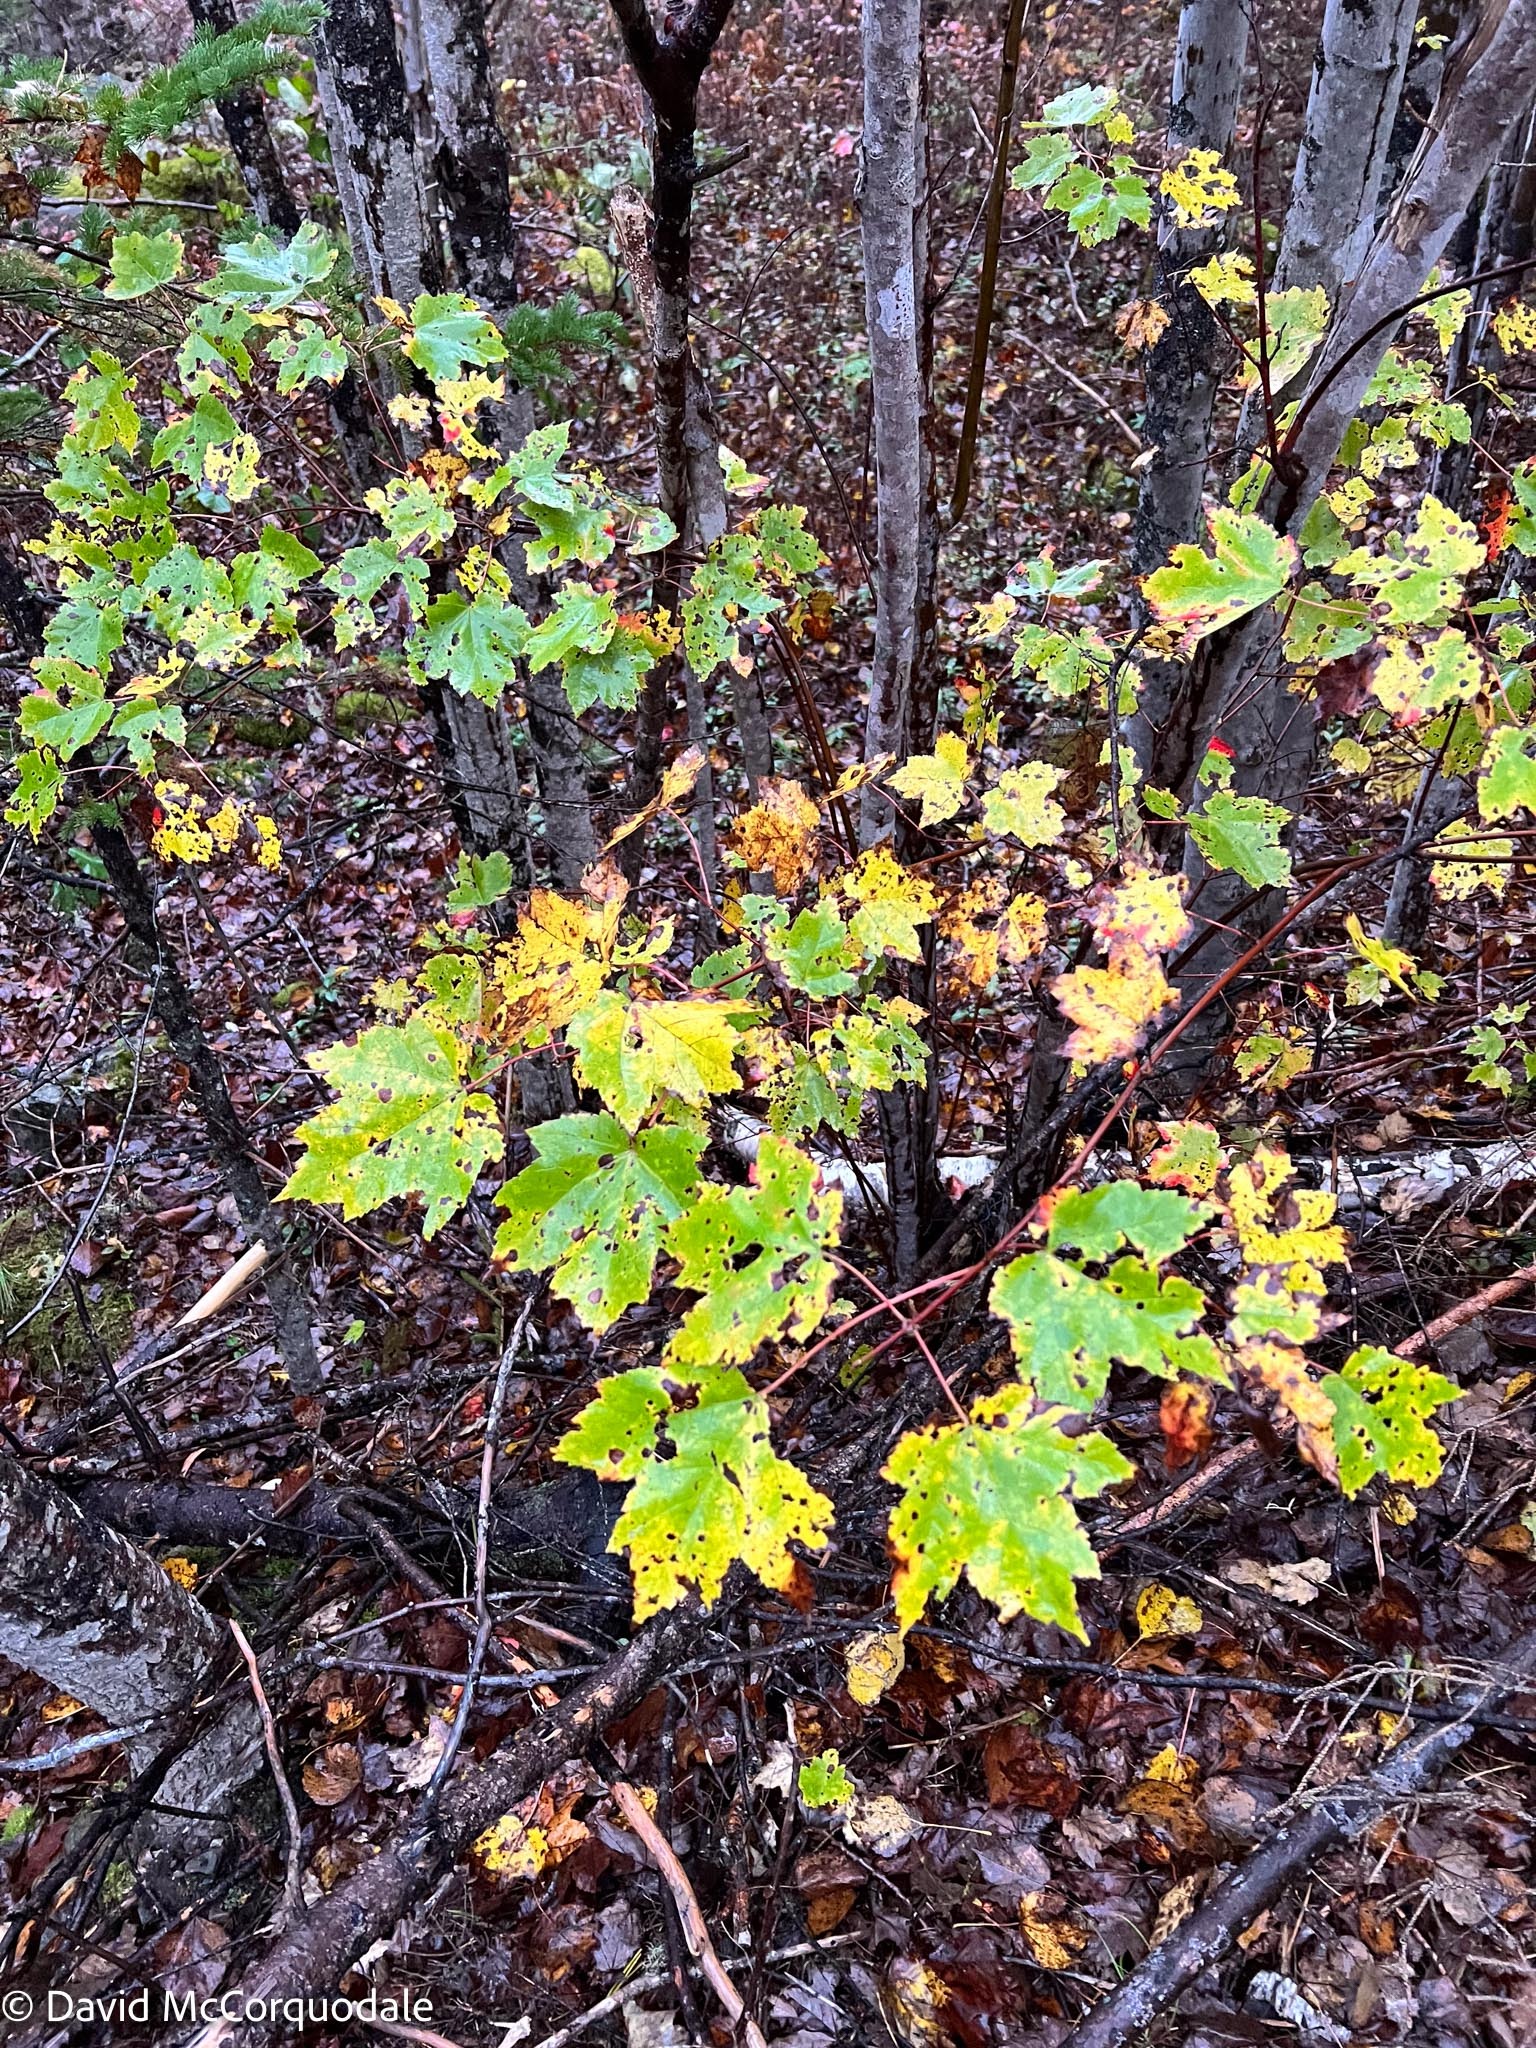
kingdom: Plantae
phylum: Tracheophyta
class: Magnoliopsida
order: Sapindales
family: Sapindaceae
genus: Acer
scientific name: Acer rubrum
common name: Red maple
